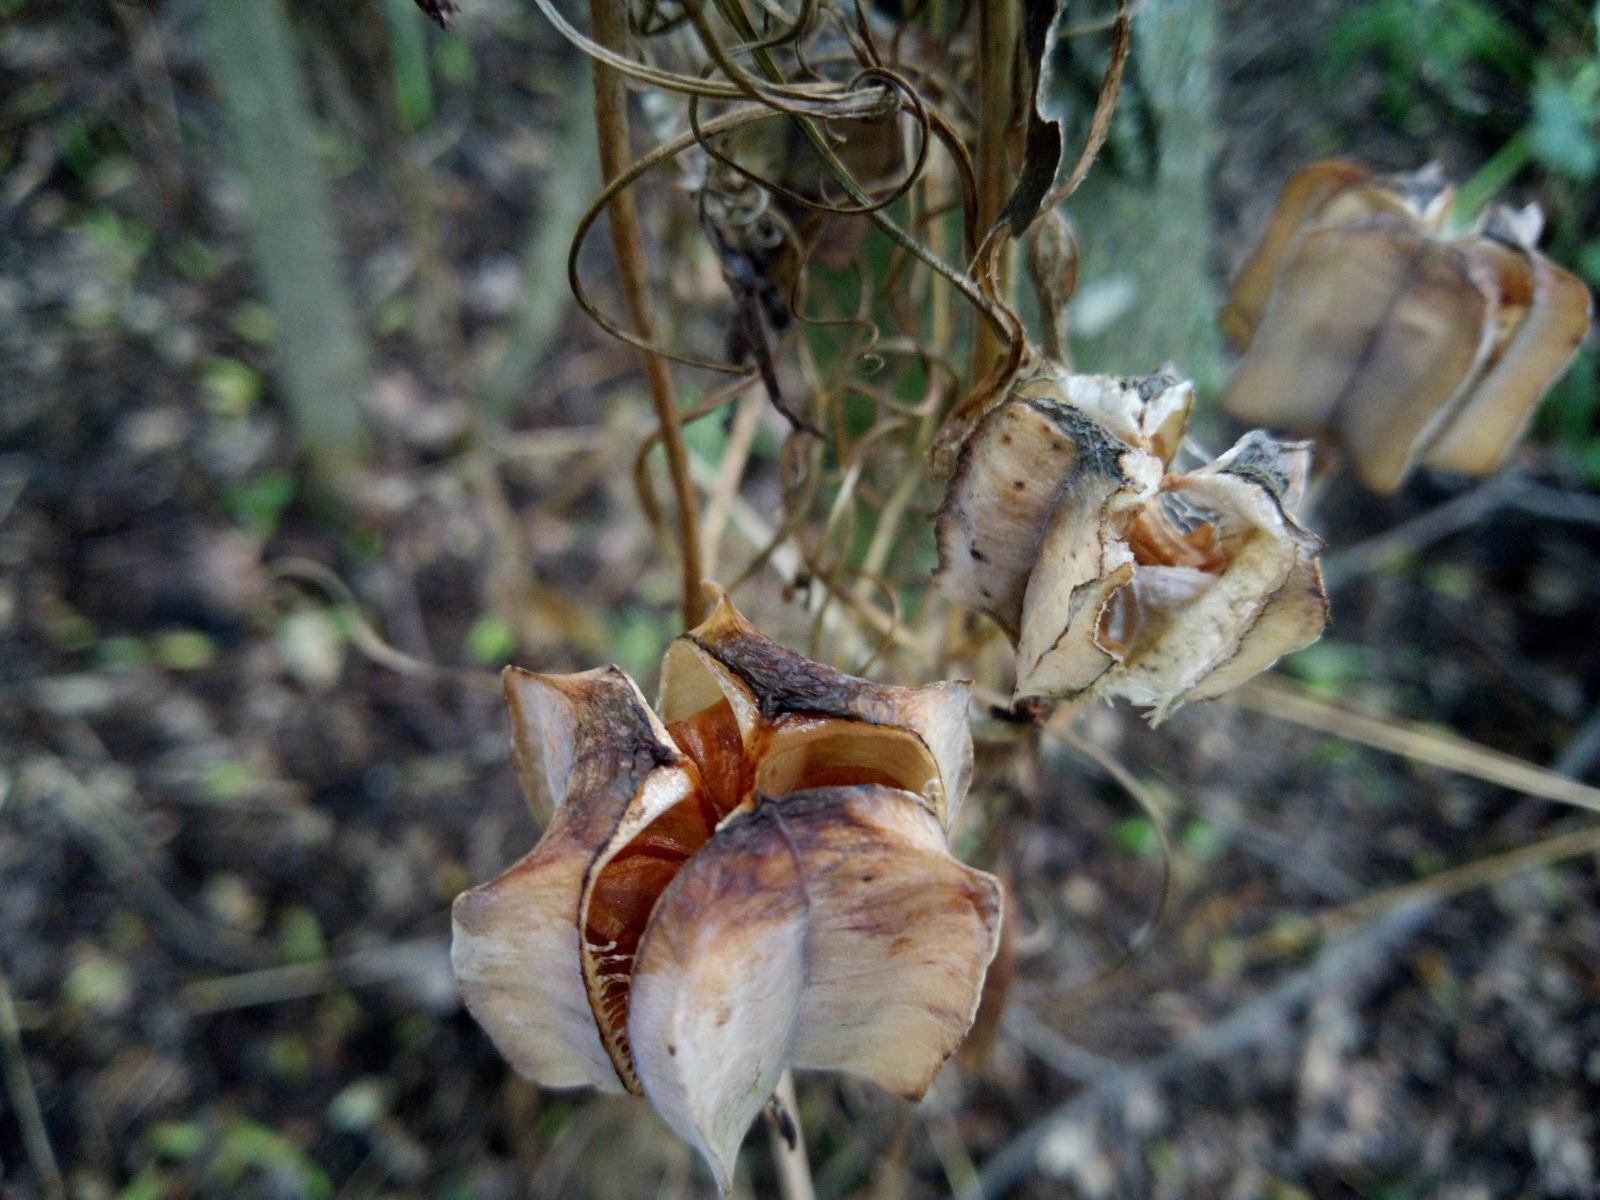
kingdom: Plantae
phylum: Tracheophyta
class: Liliopsida
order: Liliales
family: Liliaceae
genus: Fritillaria
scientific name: Fritillaria ruthenica
